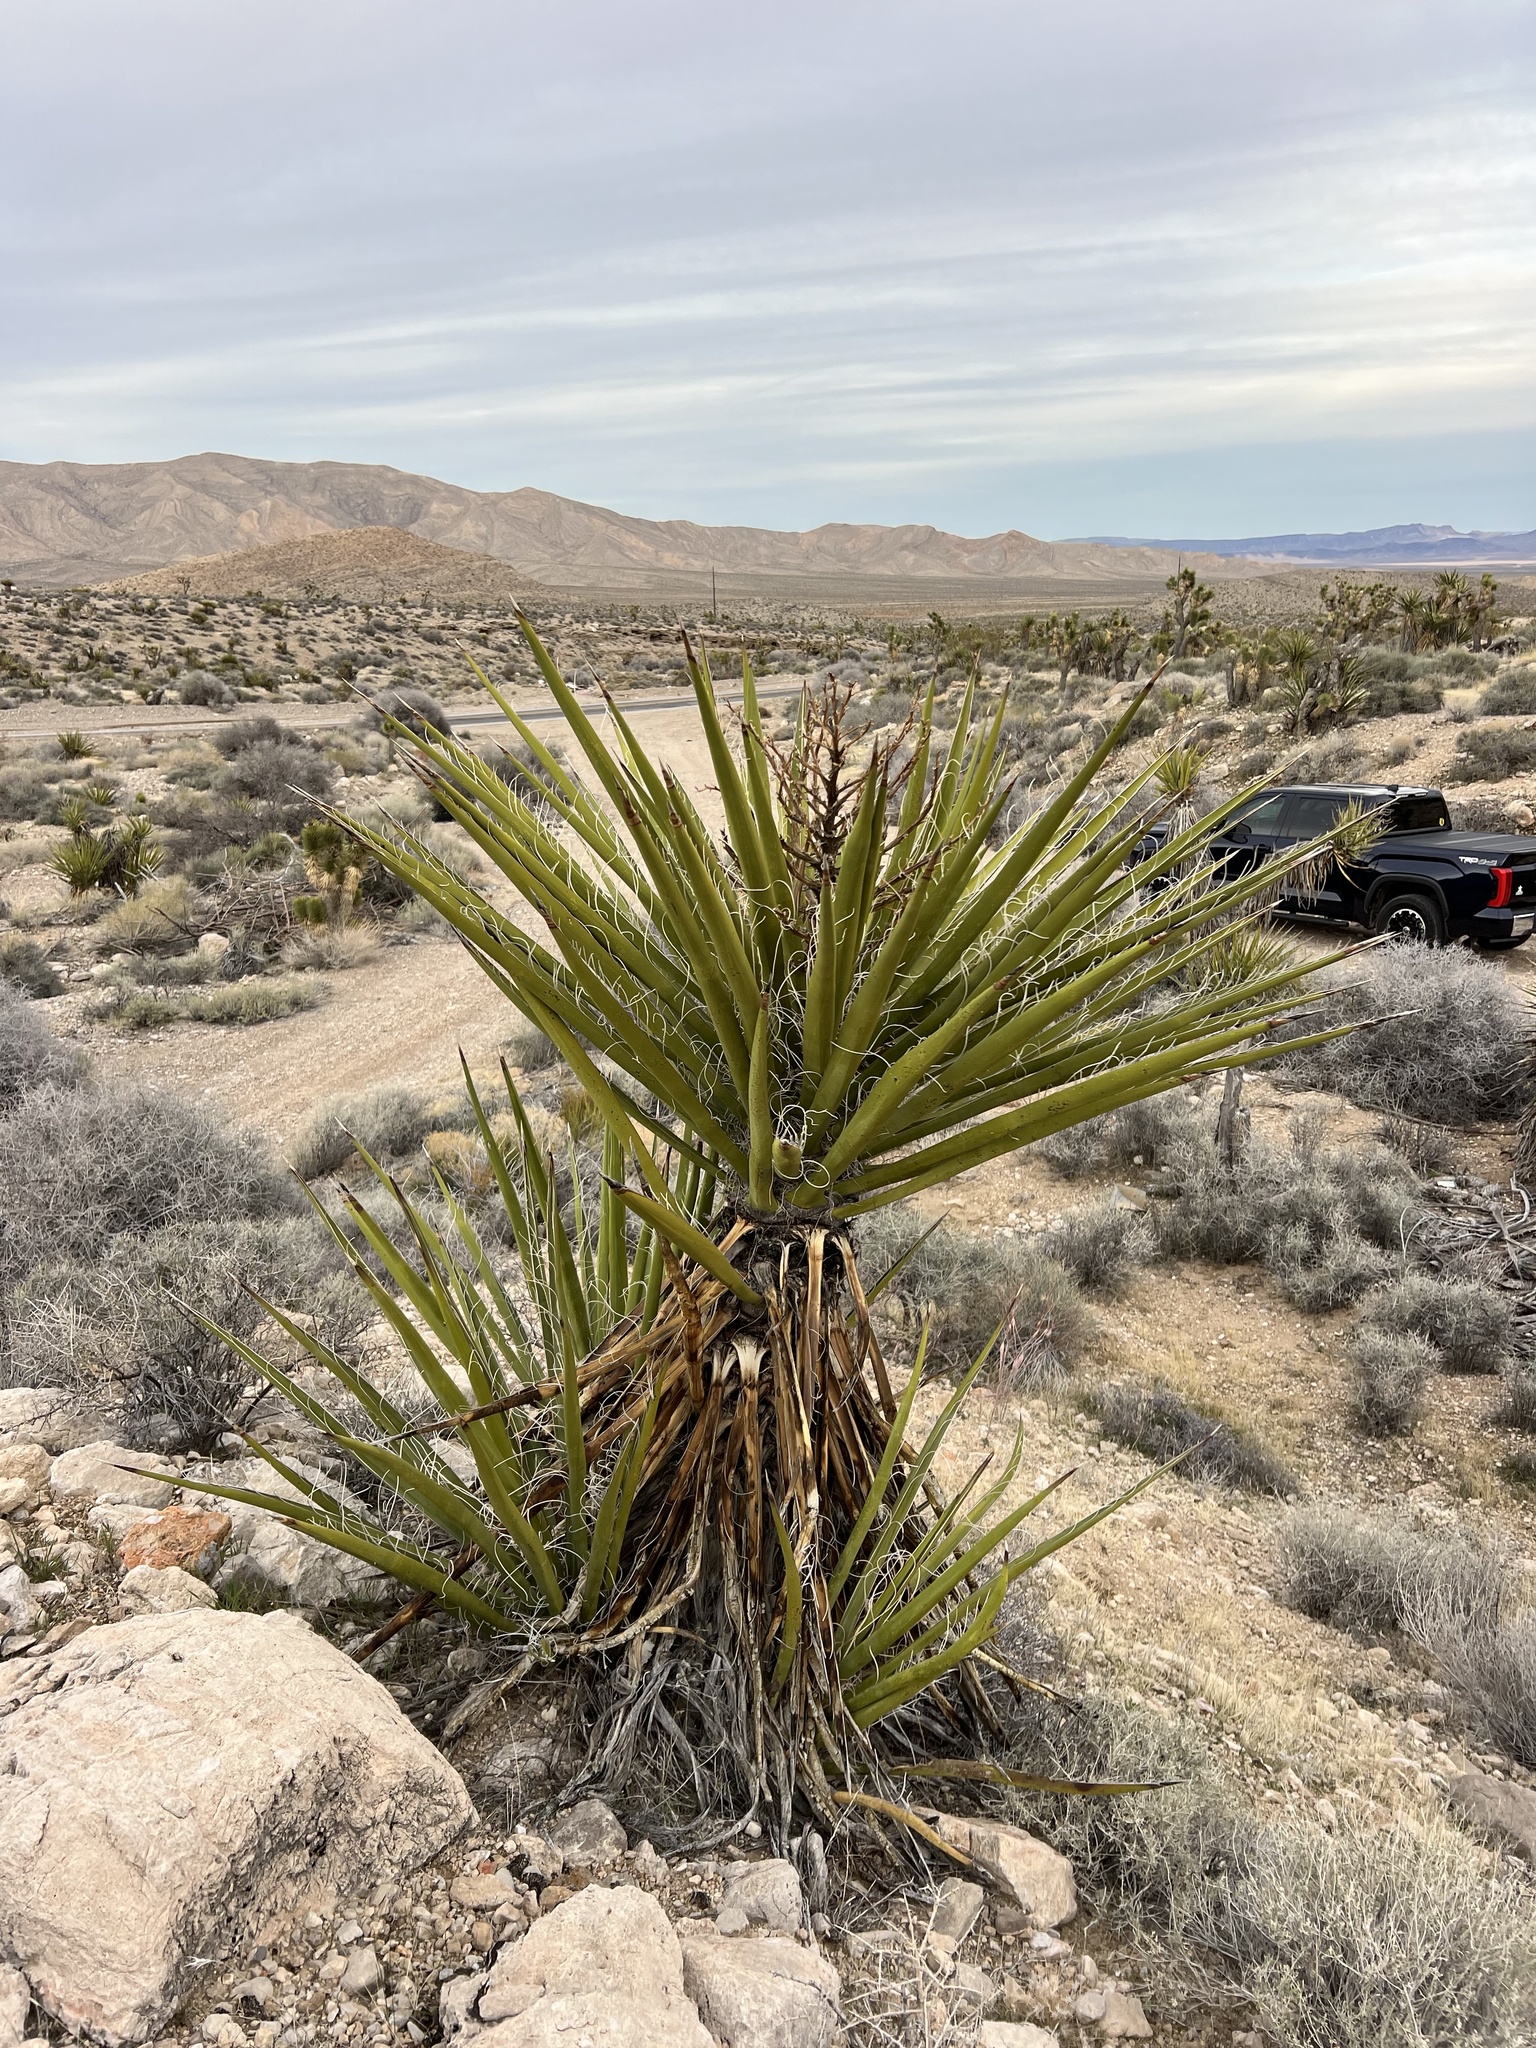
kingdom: Plantae
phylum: Tracheophyta
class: Liliopsida
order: Asparagales
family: Asparagaceae
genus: Yucca
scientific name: Yucca schidigera
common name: Mojave yucca
